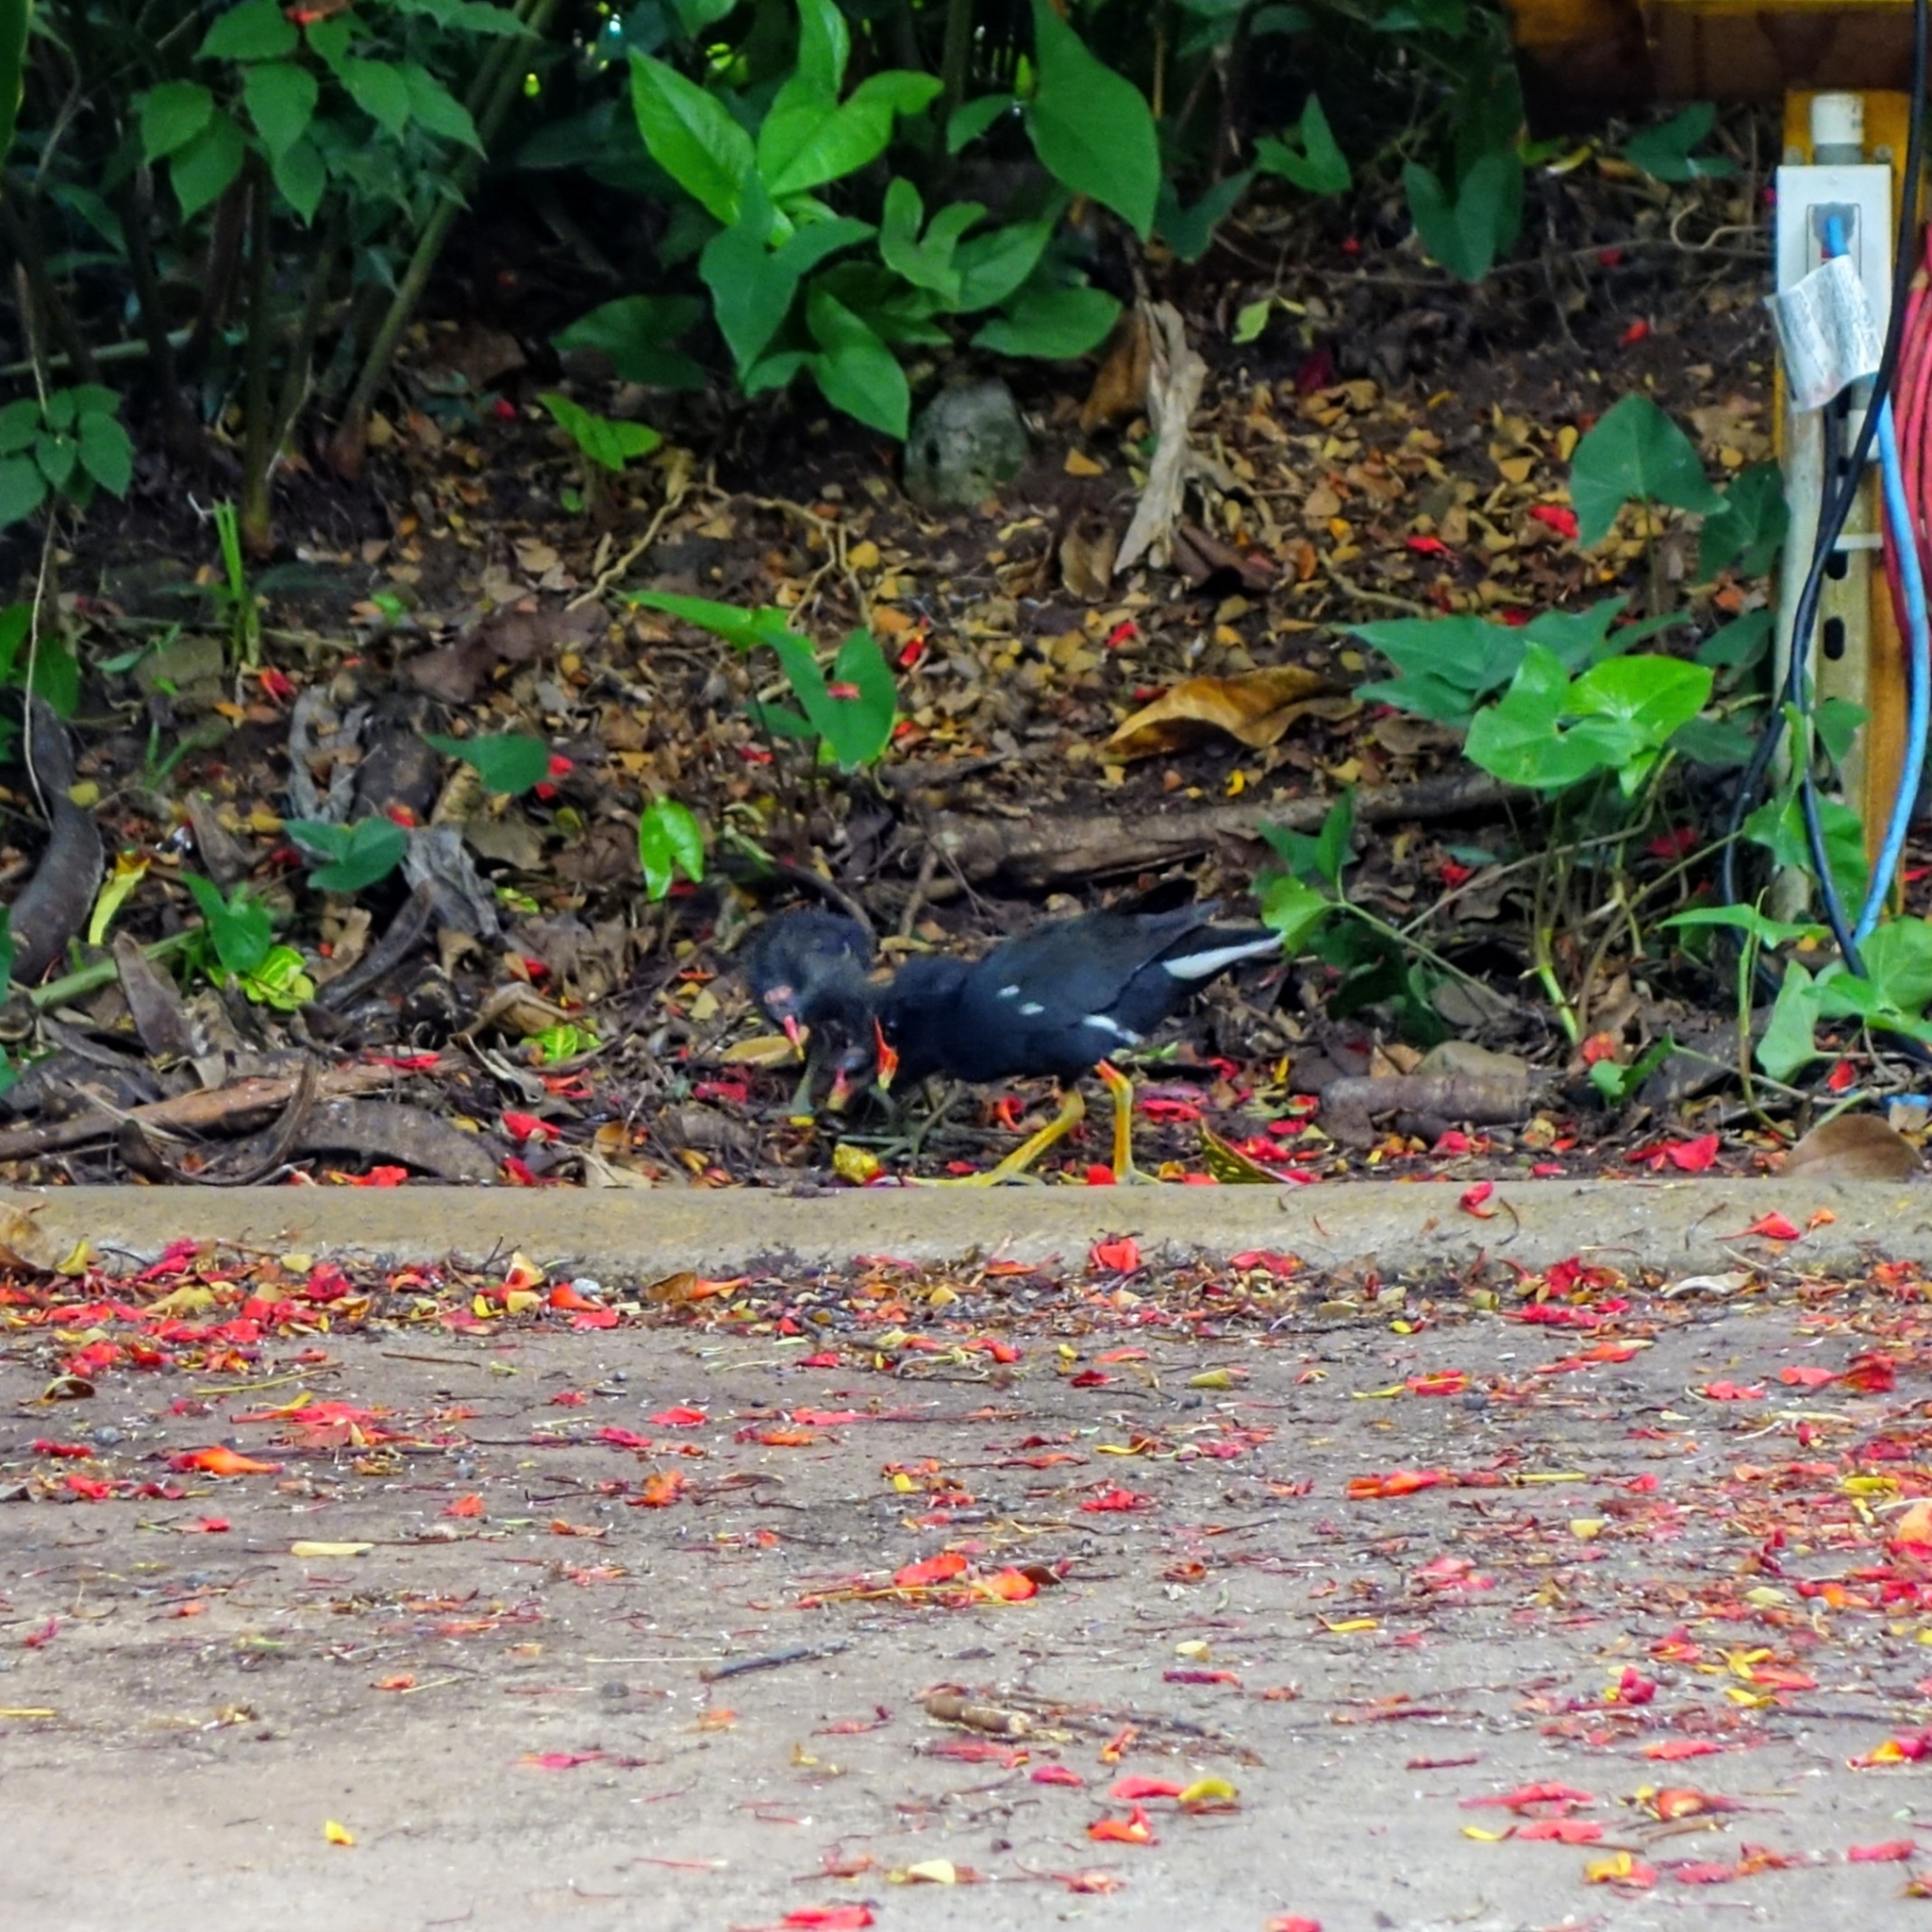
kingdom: Animalia
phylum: Chordata
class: Aves
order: Gruiformes
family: Rallidae
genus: Gallinula
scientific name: Gallinula chloropus
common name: Common moorhen
